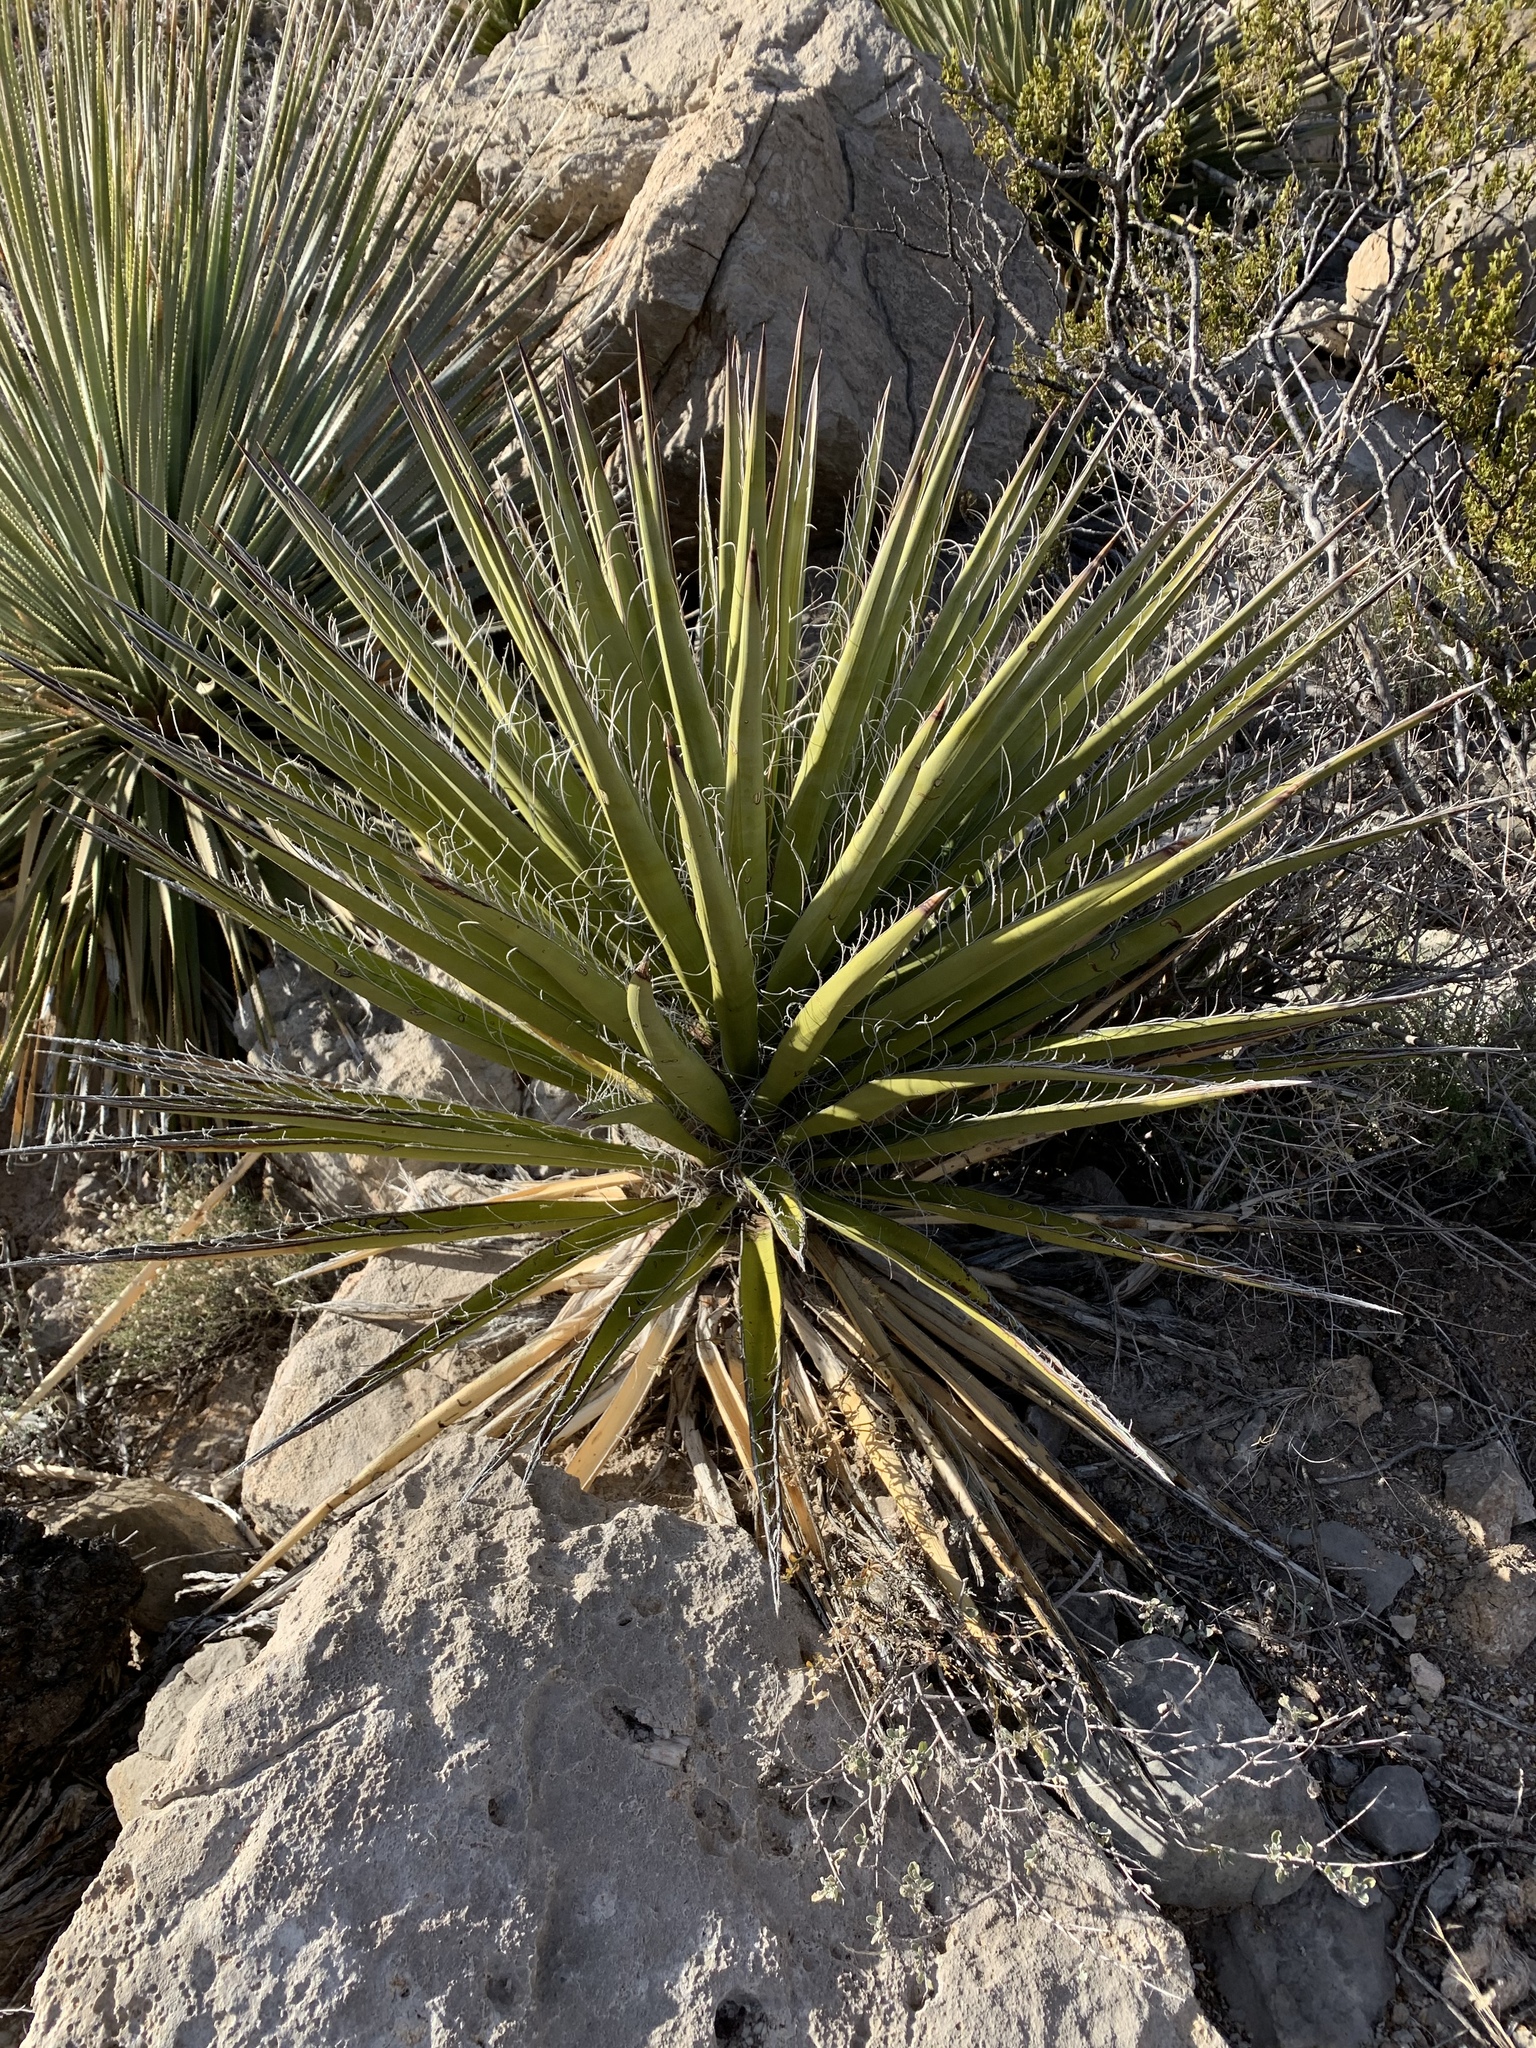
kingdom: Plantae
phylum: Tracheophyta
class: Liliopsida
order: Asparagales
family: Asparagaceae
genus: Yucca
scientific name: Yucca treculiana
